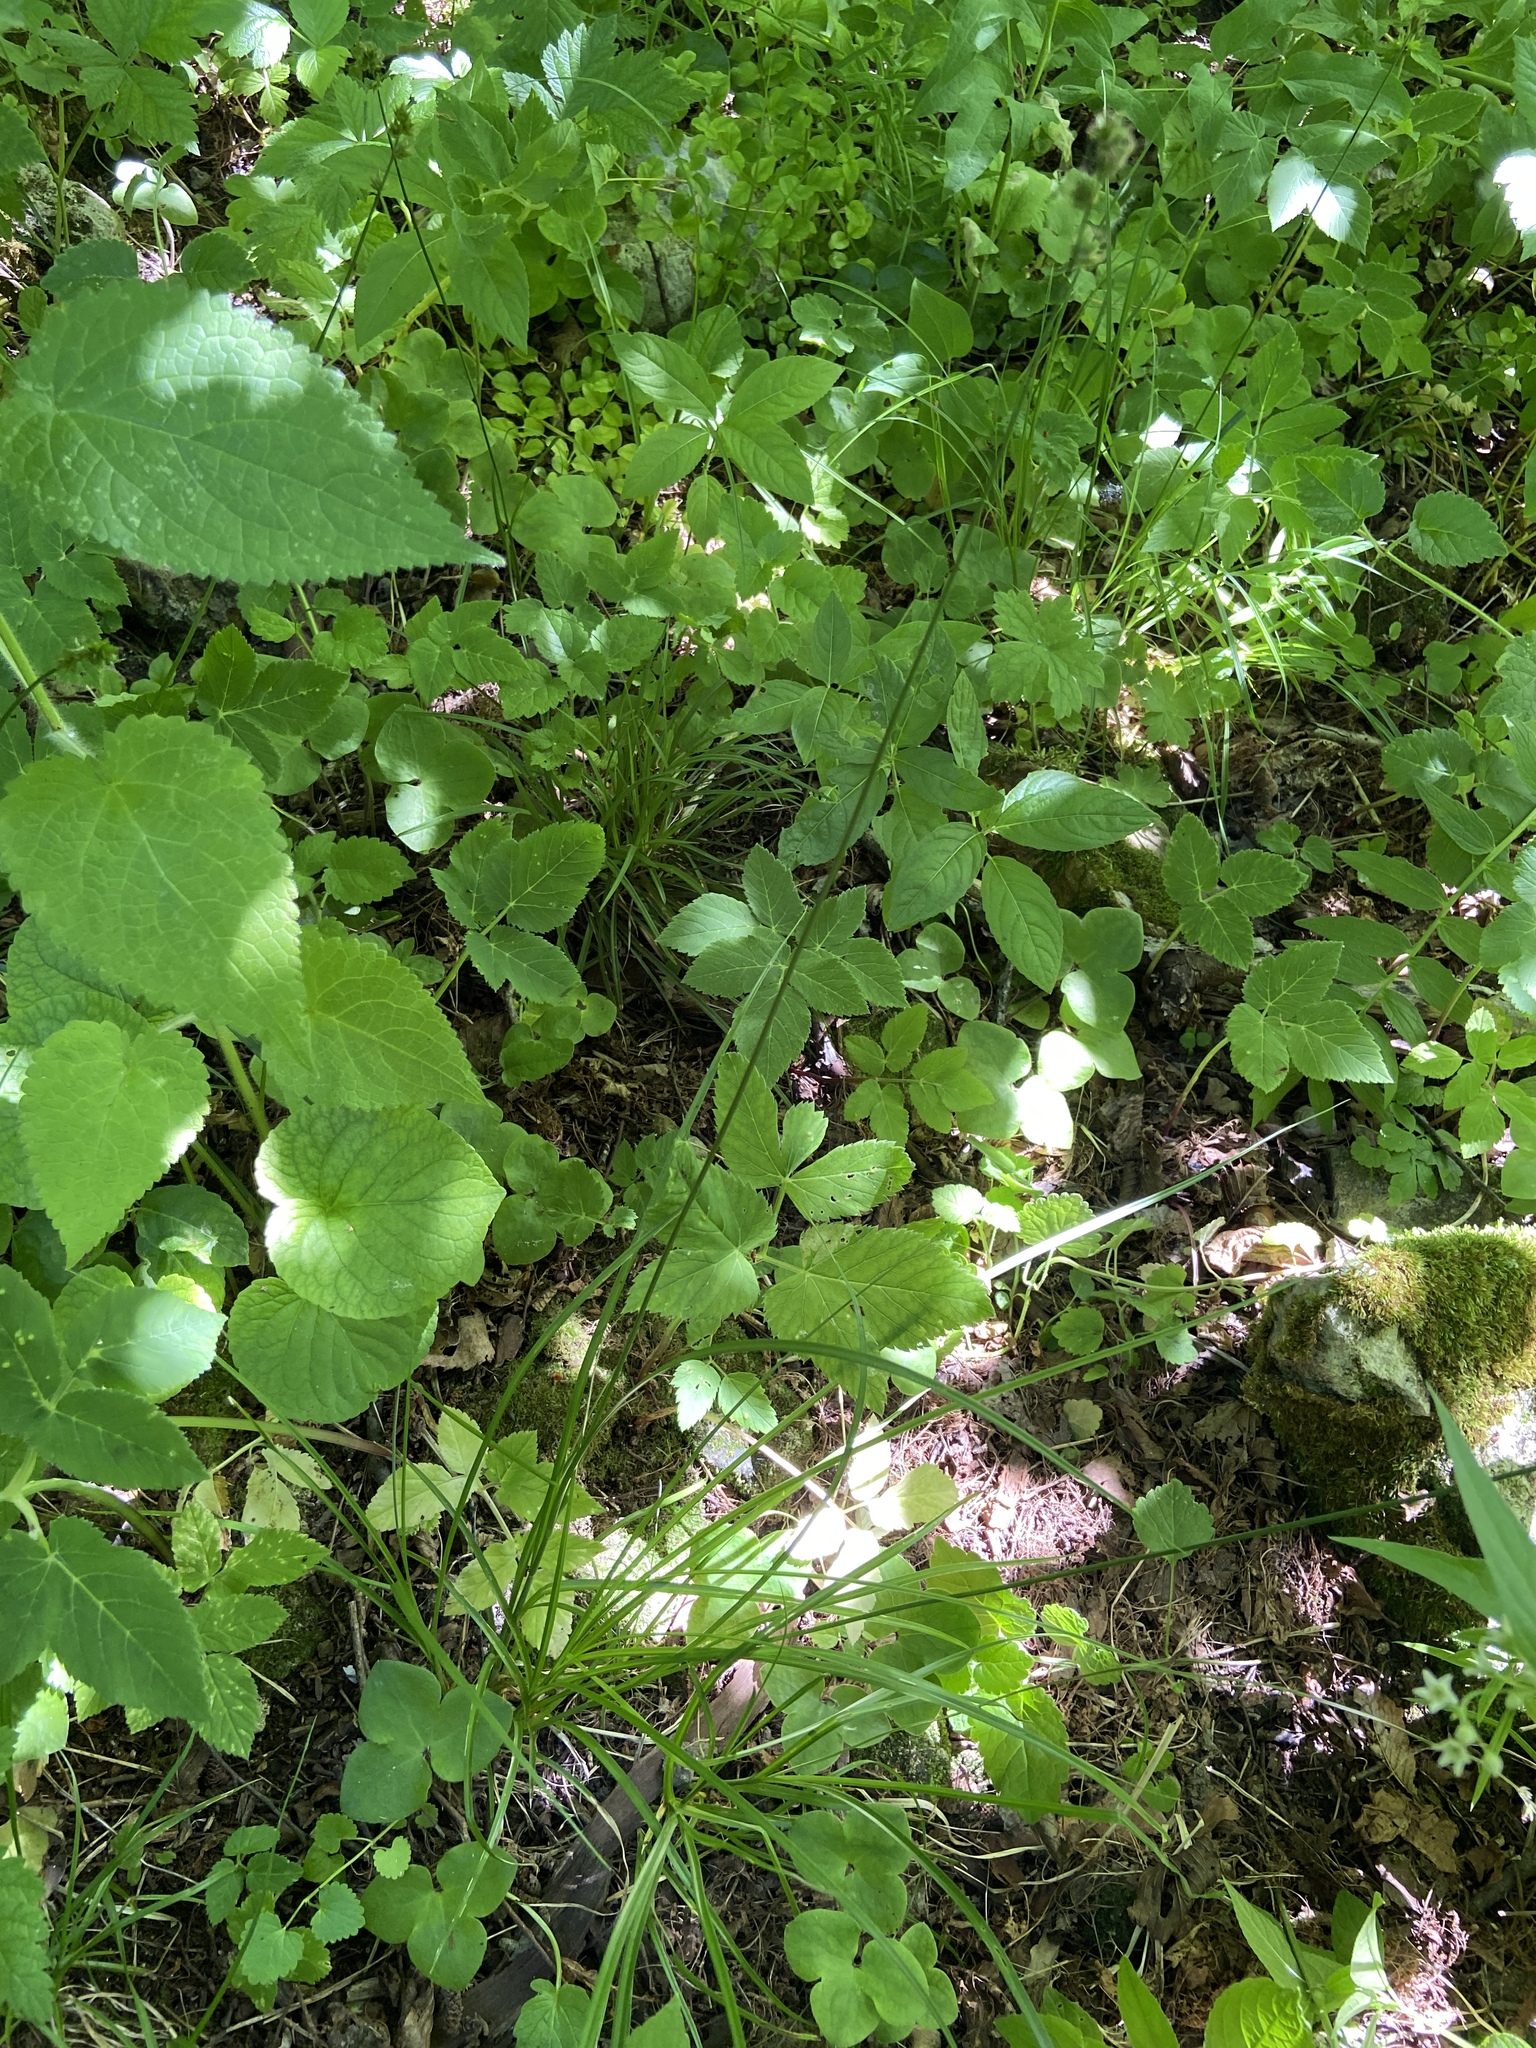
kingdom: Plantae
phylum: Tracheophyta
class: Liliopsida
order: Poales
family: Cyperaceae
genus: Carex
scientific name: Carex muricata
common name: Rough sedge
